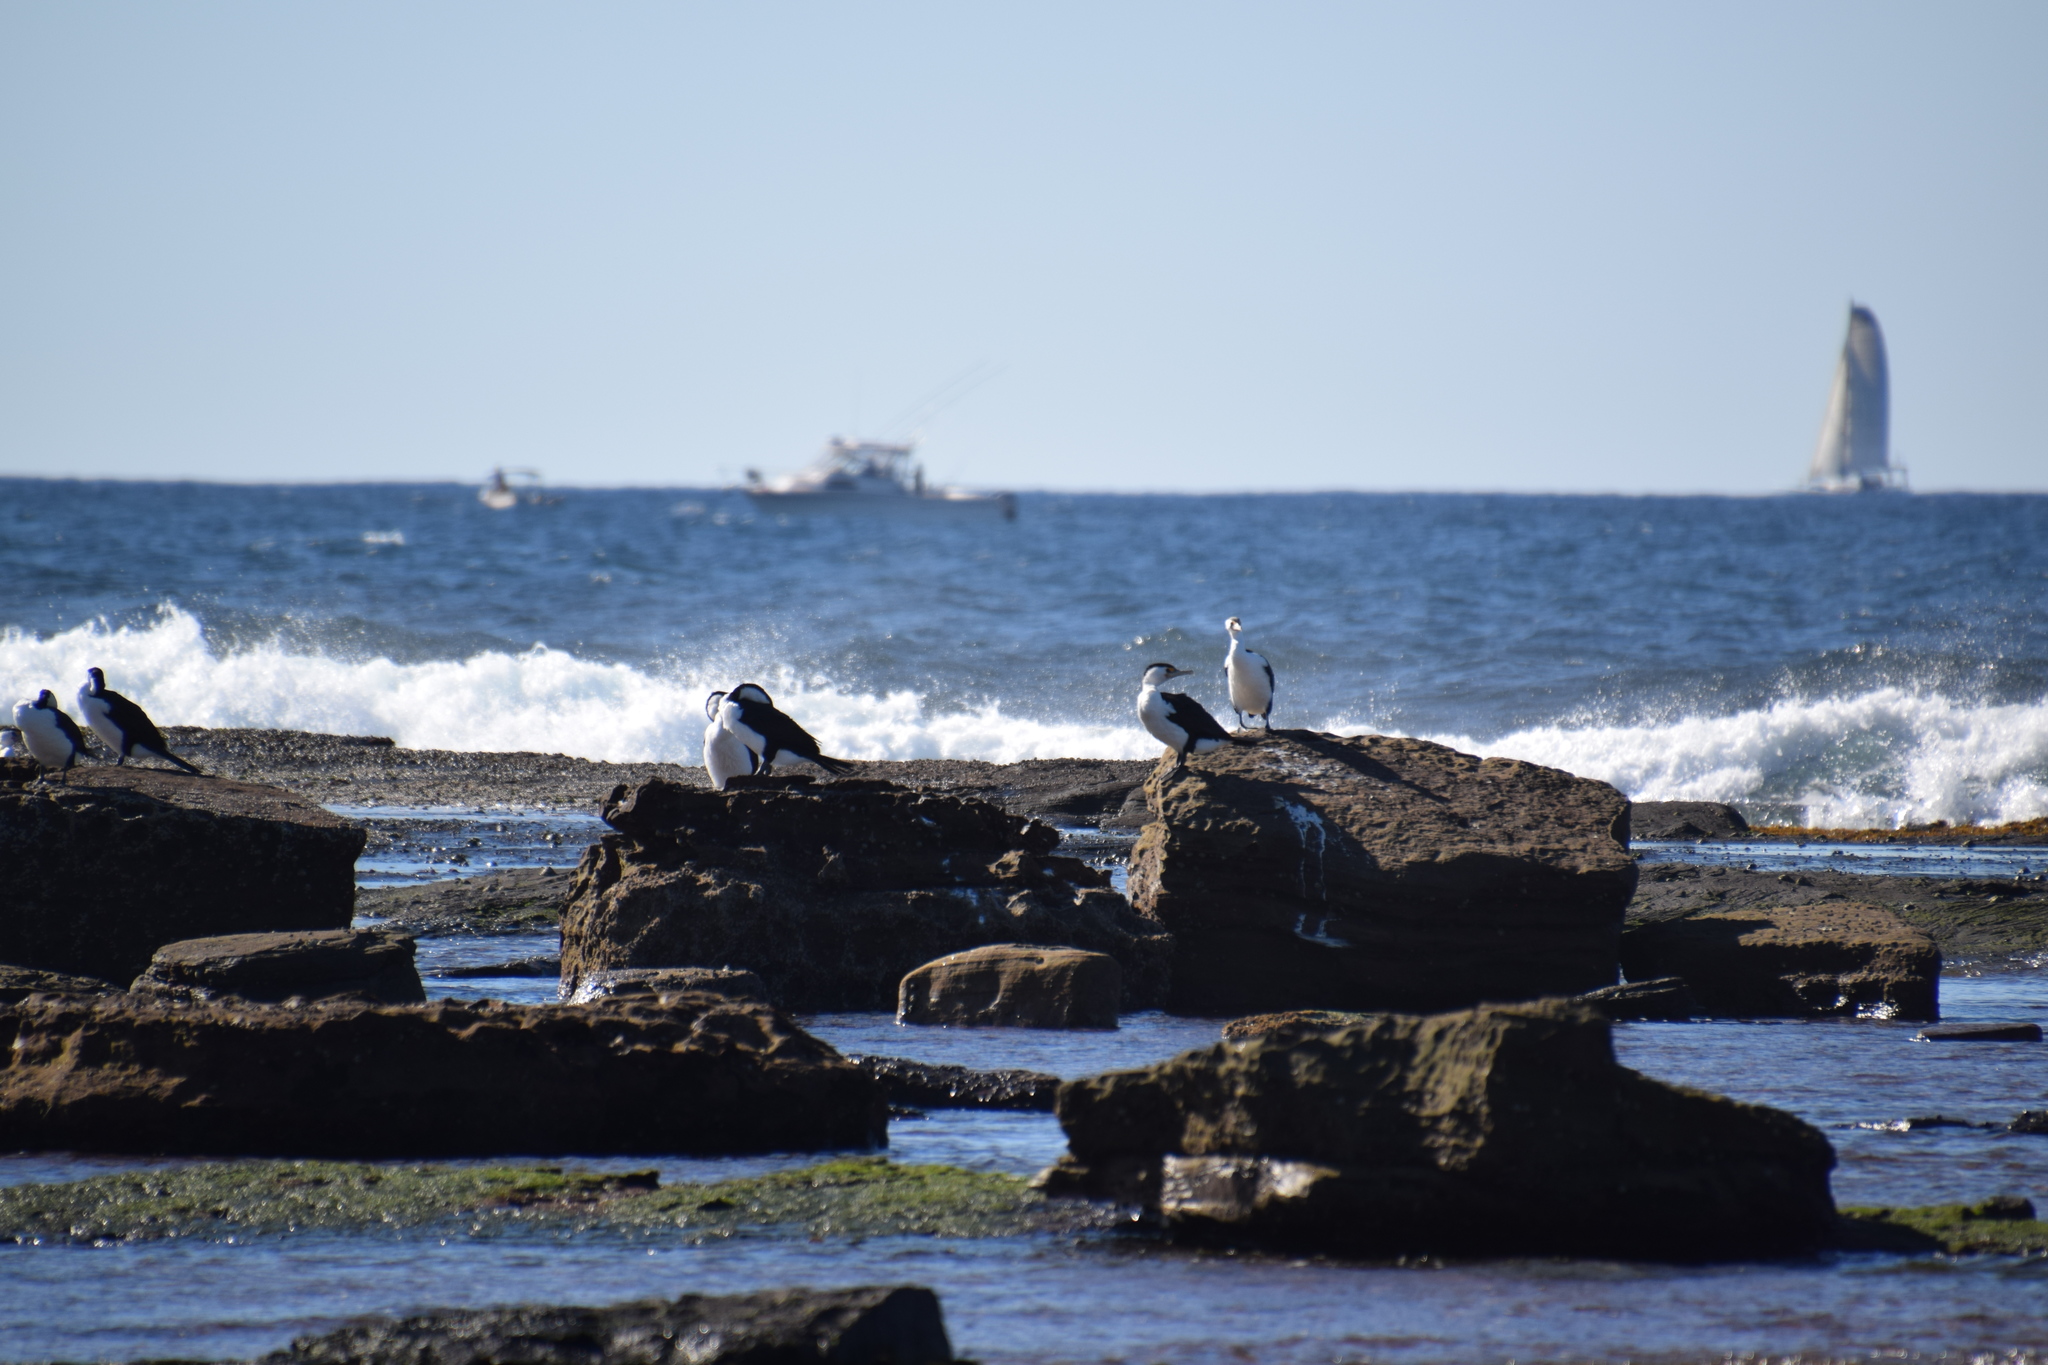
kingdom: Animalia
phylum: Chordata
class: Aves
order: Suliformes
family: Phalacrocoracidae
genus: Phalacrocorax
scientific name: Phalacrocorax varius
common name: Pied cormorant
